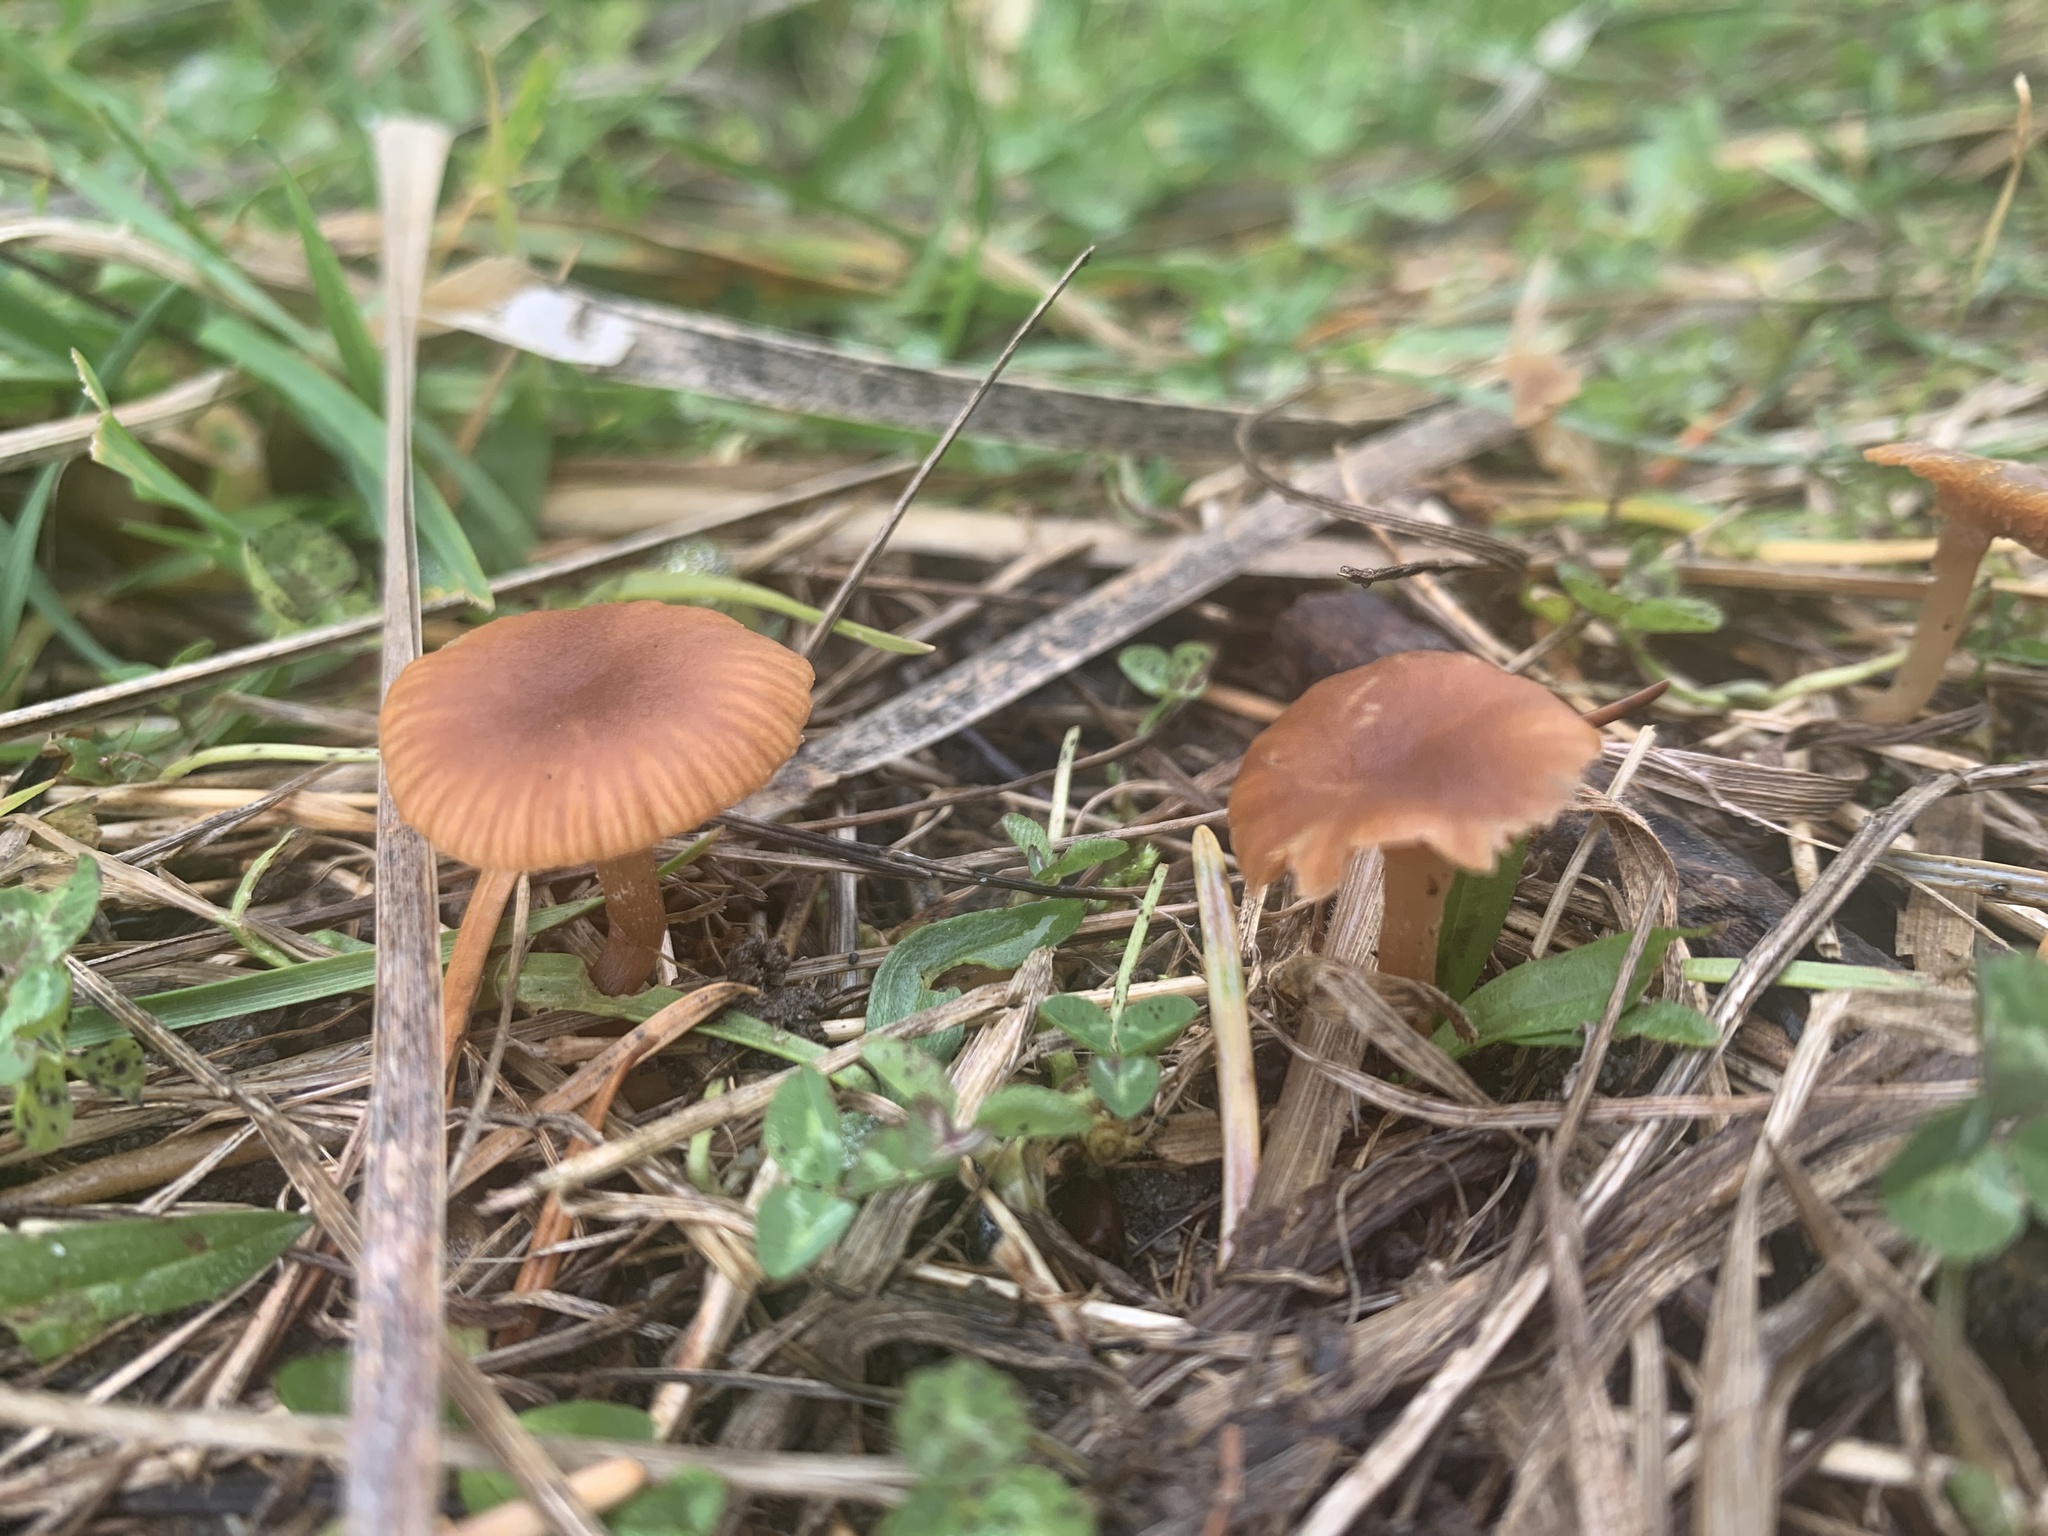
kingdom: Fungi
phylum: Basidiomycota
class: Agaricomycetes
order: Agaricales
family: Tubariaceae
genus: Tubaria
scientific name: Tubaria furfuracea
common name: Scurfy twiglet
